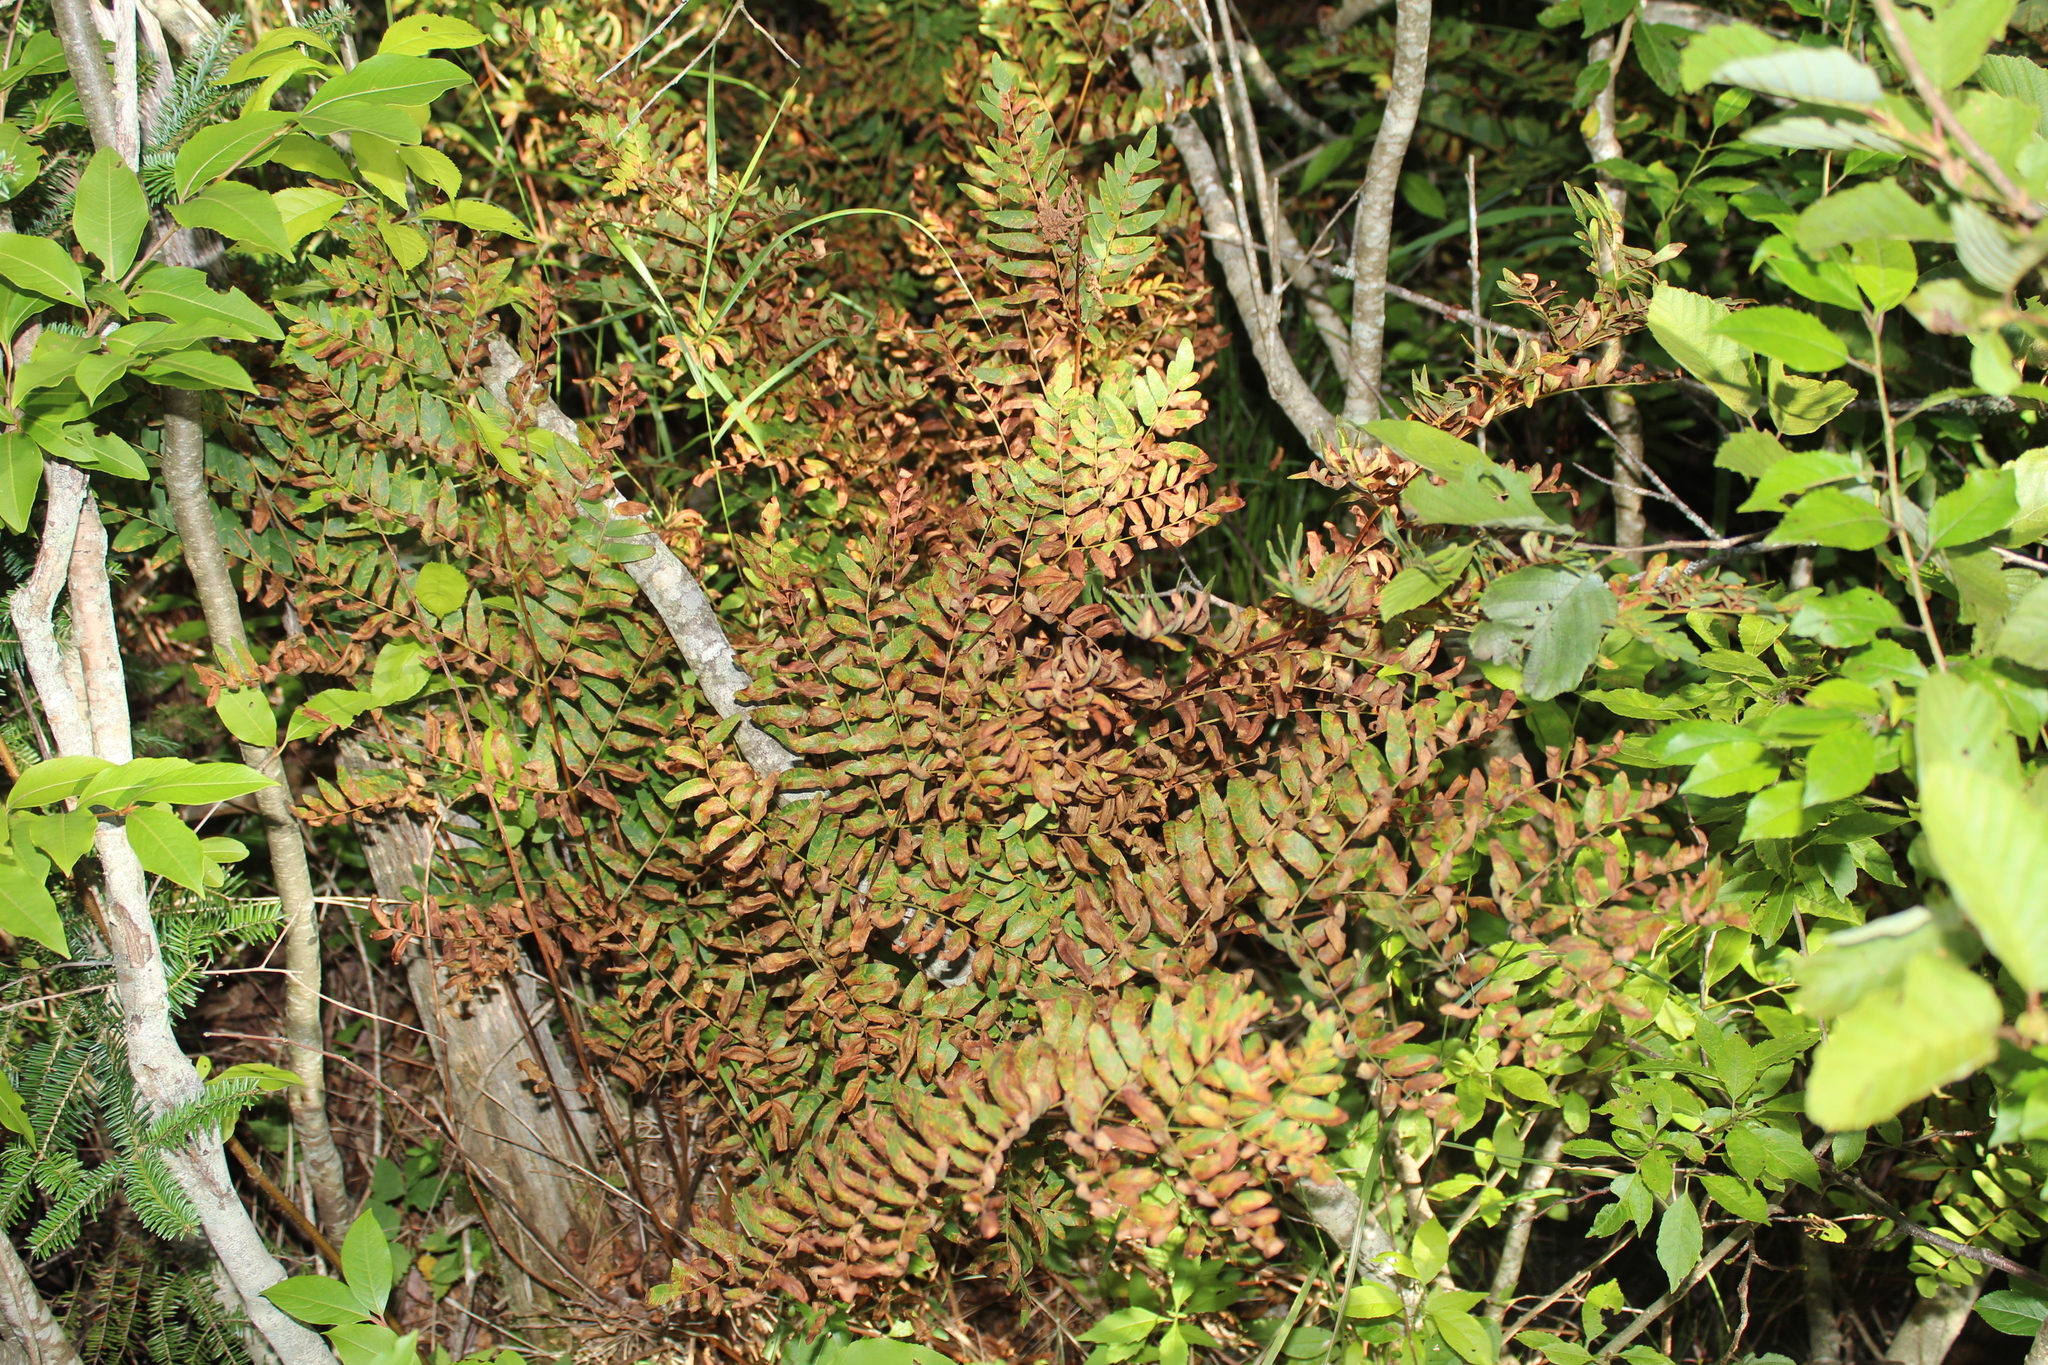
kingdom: Plantae
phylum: Tracheophyta
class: Polypodiopsida
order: Osmundales
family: Osmundaceae
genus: Osmunda
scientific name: Osmunda spectabilis
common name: American royal fern
